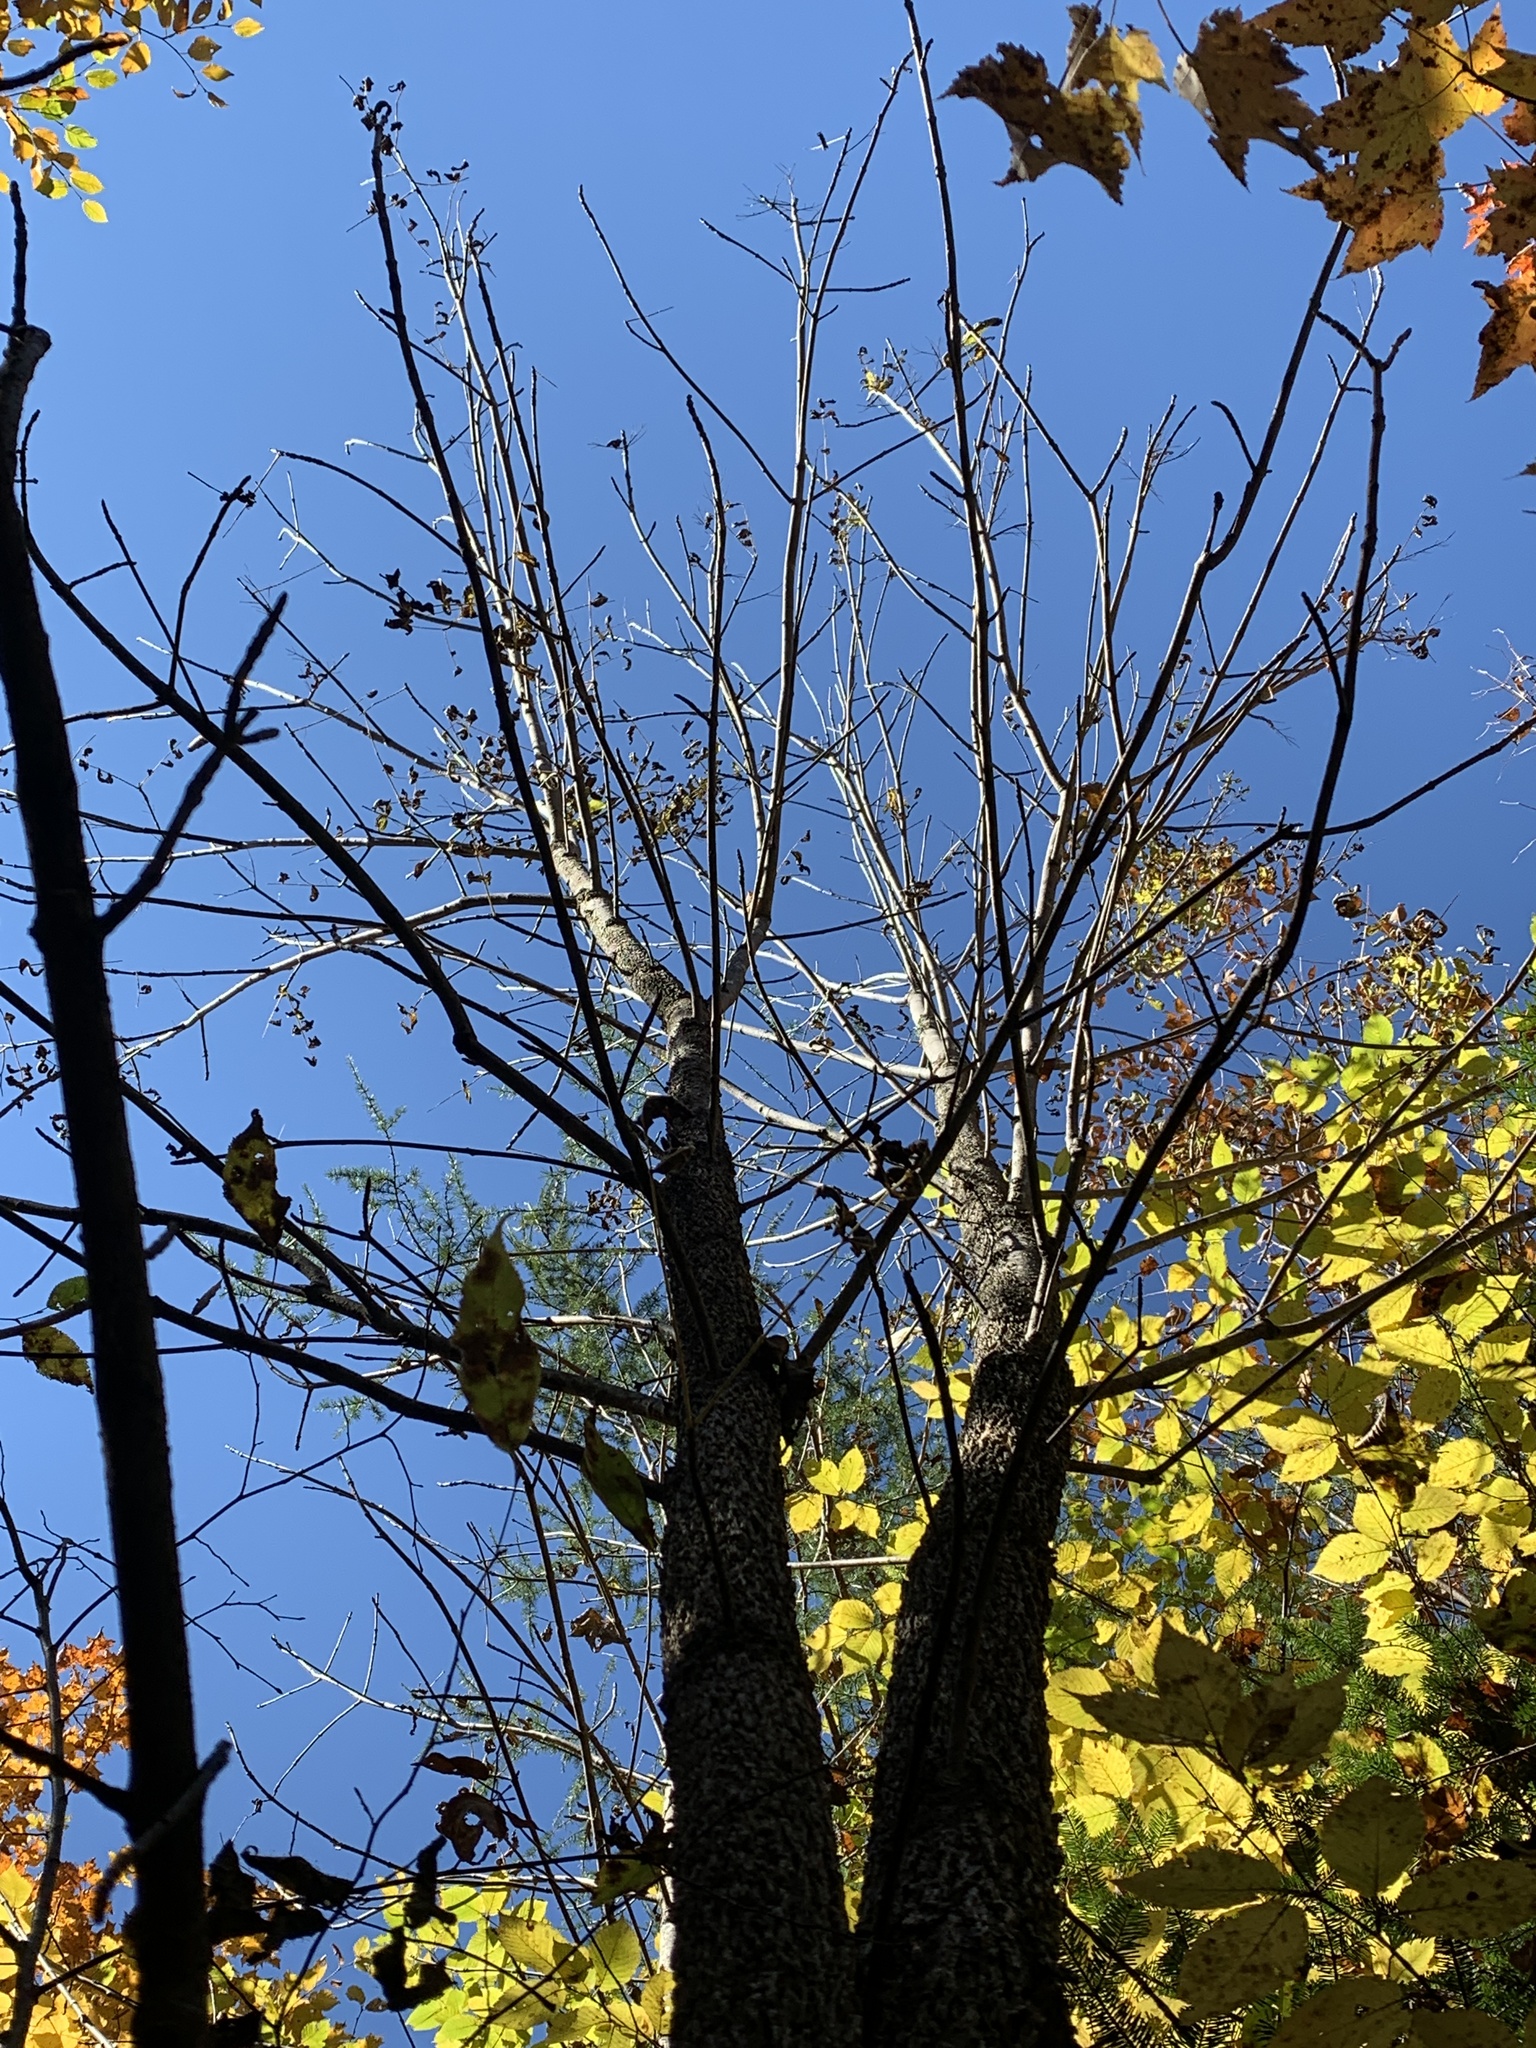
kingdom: Plantae
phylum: Tracheophyta
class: Magnoliopsida
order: Lamiales
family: Oleaceae
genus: Fraxinus
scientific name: Fraxinus nigra
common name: Black ash
